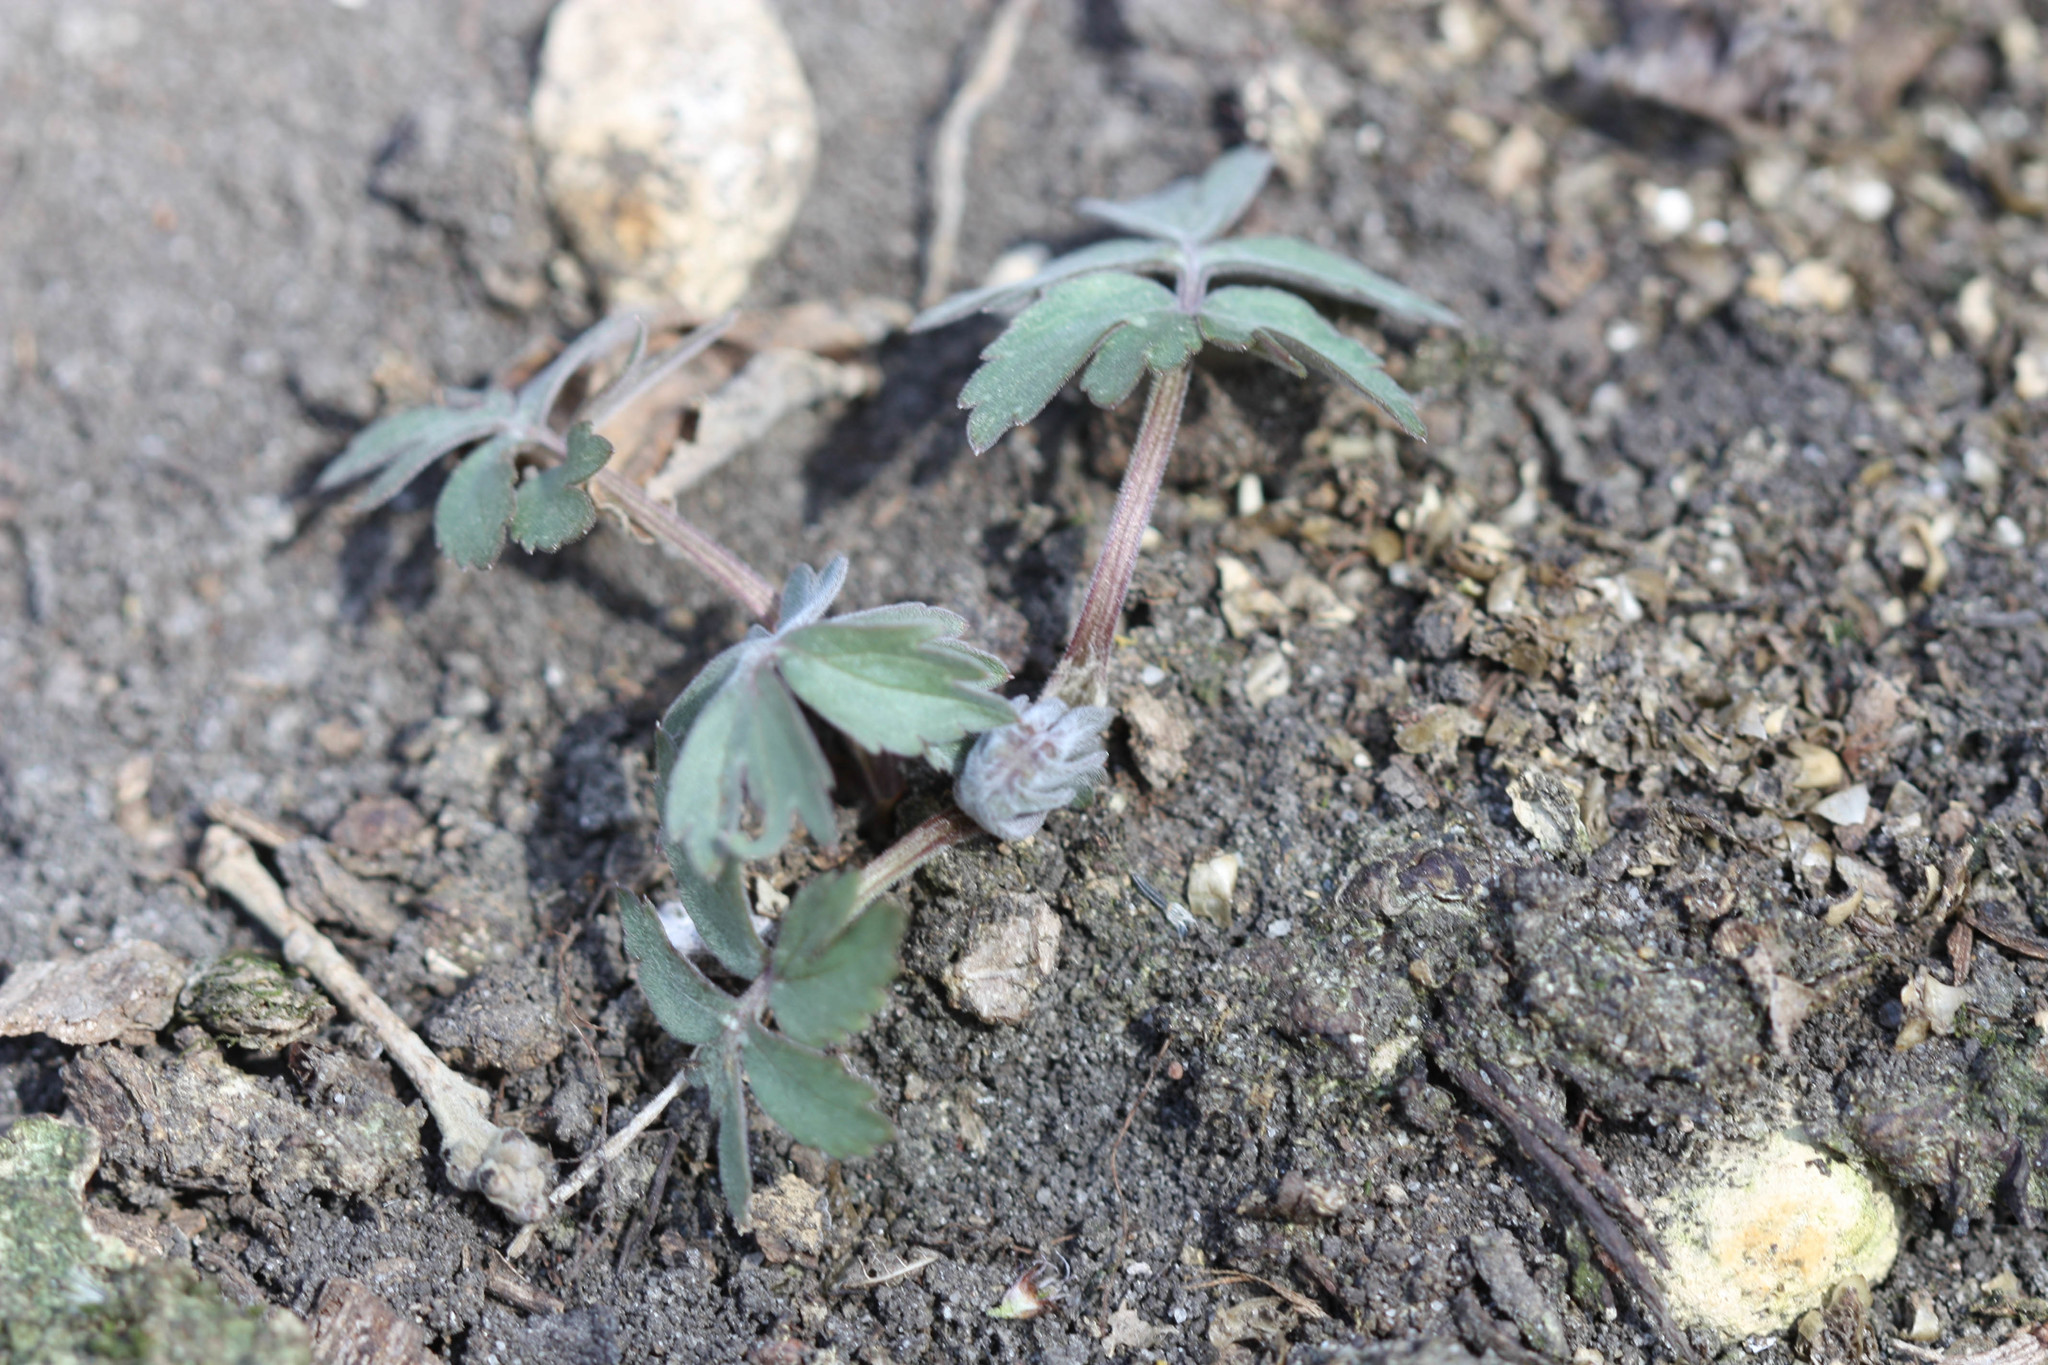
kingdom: Plantae
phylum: Tracheophyta
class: Magnoliopsida
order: Boraginales
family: Hydrophyllaceae
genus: Hydrophyllum
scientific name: Hydrophyllum virginianum
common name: Virginia waterleaf
